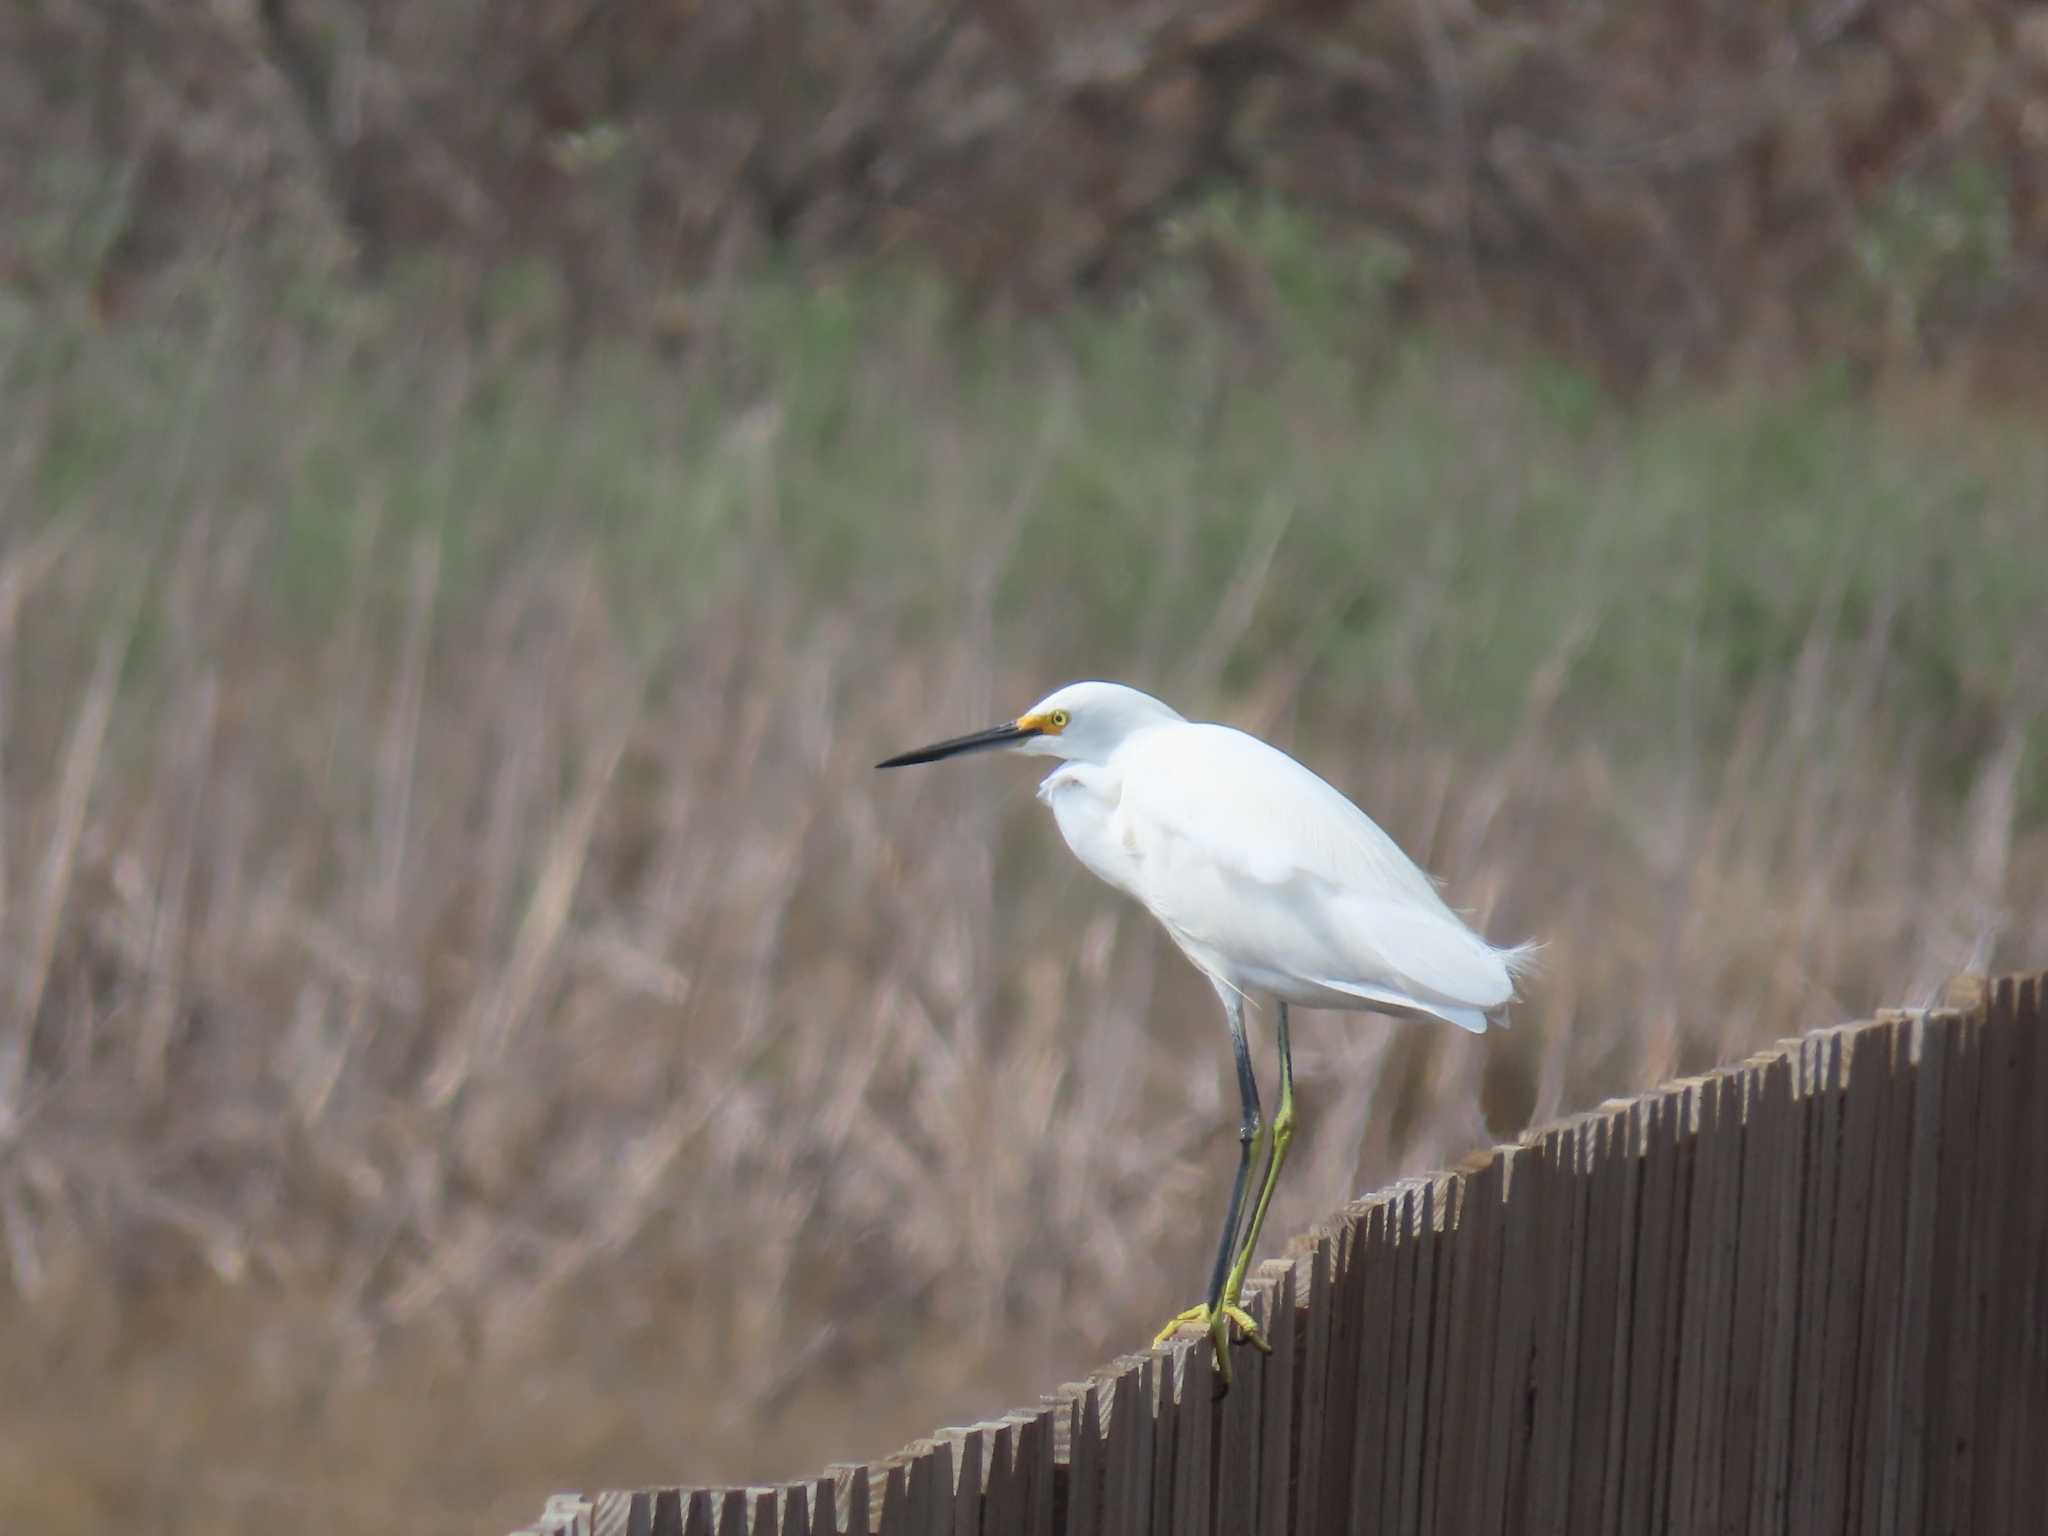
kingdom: Animalia
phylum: Chordata
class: Aves
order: Pelecaniformes
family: Ardeidae
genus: Egretta
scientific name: Egretta thula
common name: Snowy egret
